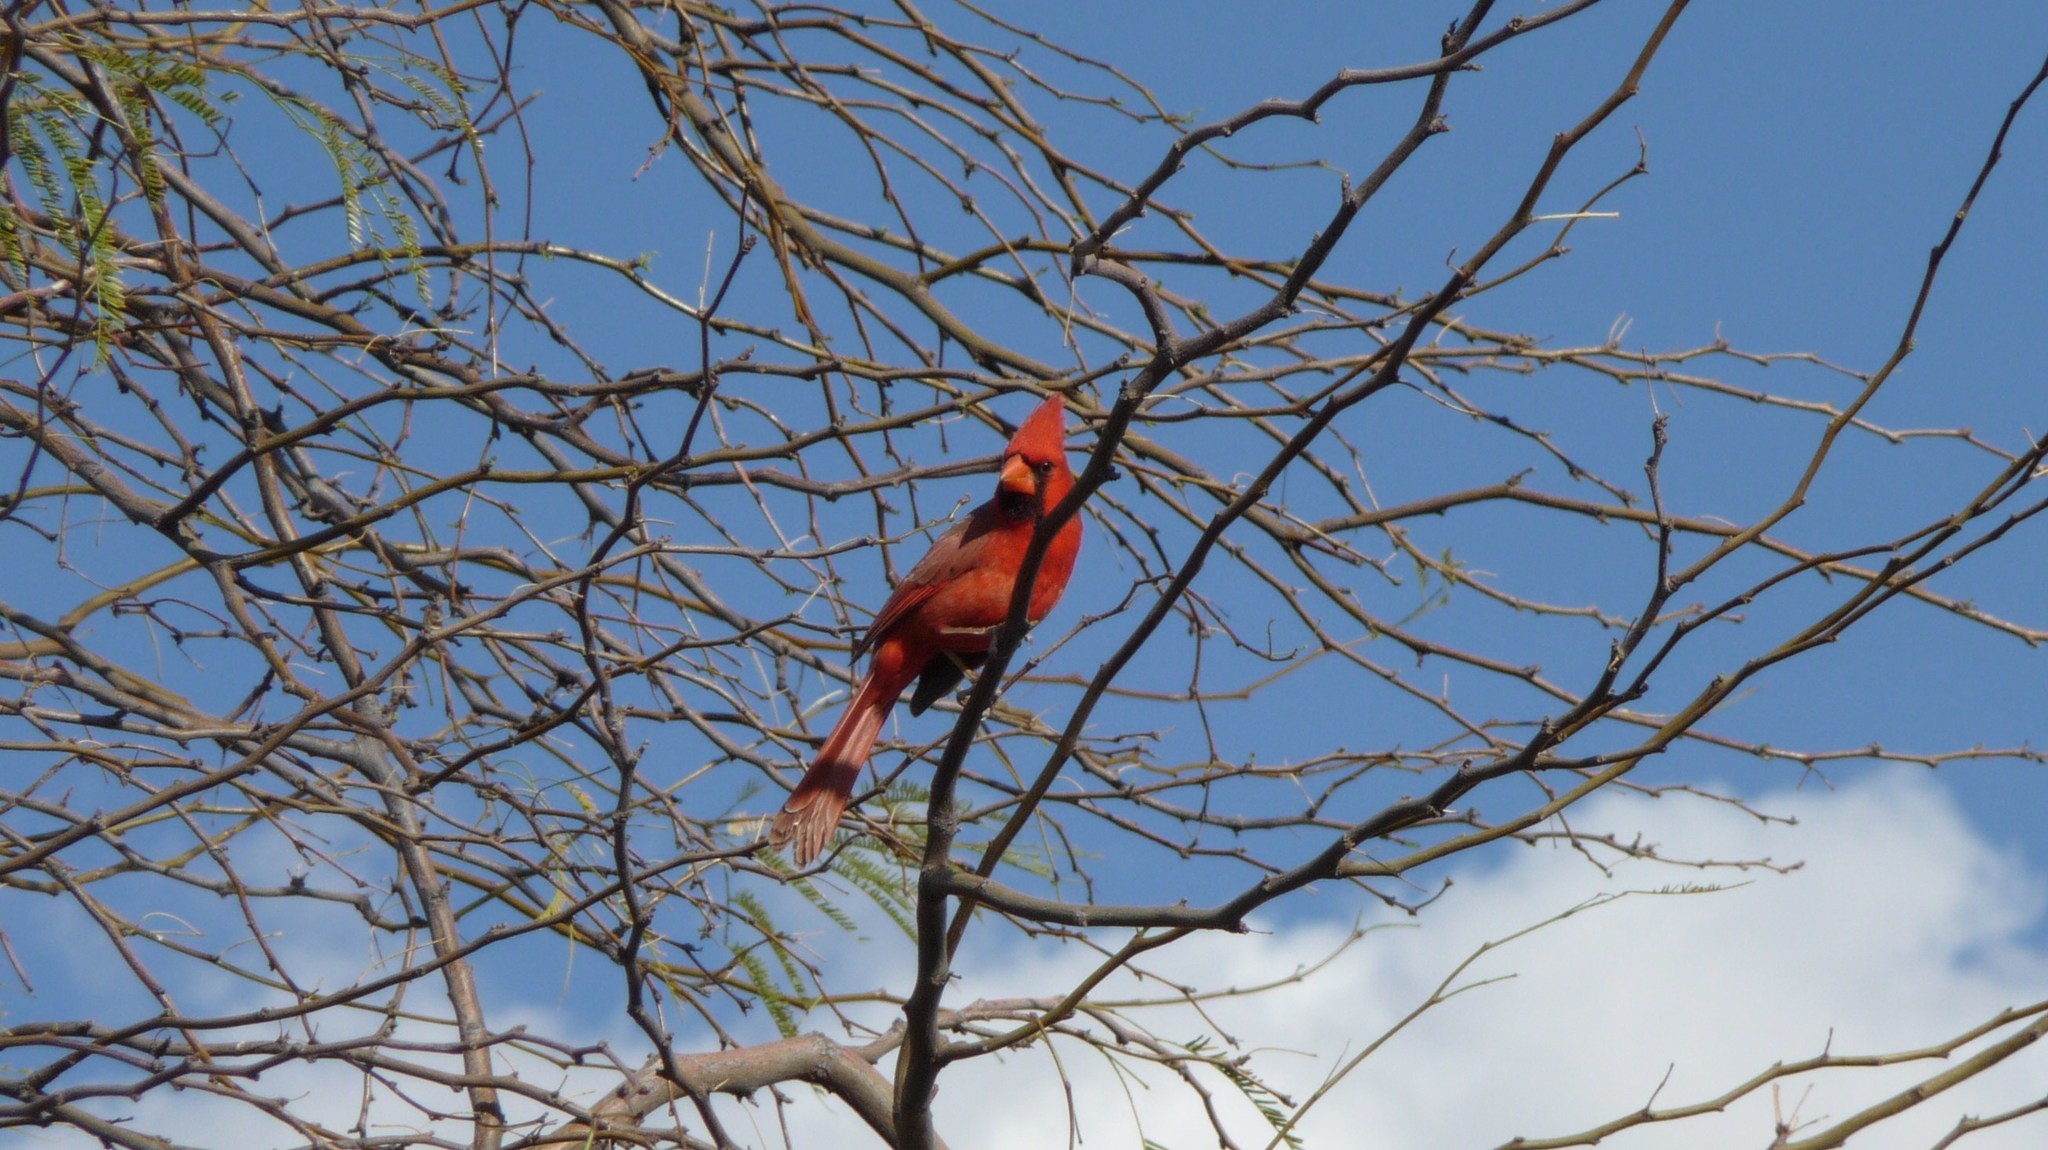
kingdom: Animalia
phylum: Chordata
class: Aves
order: Passeriformes
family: Cardinalidae
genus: Cardinalis
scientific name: Cardinalis cardinalis
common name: Northern cardinal
